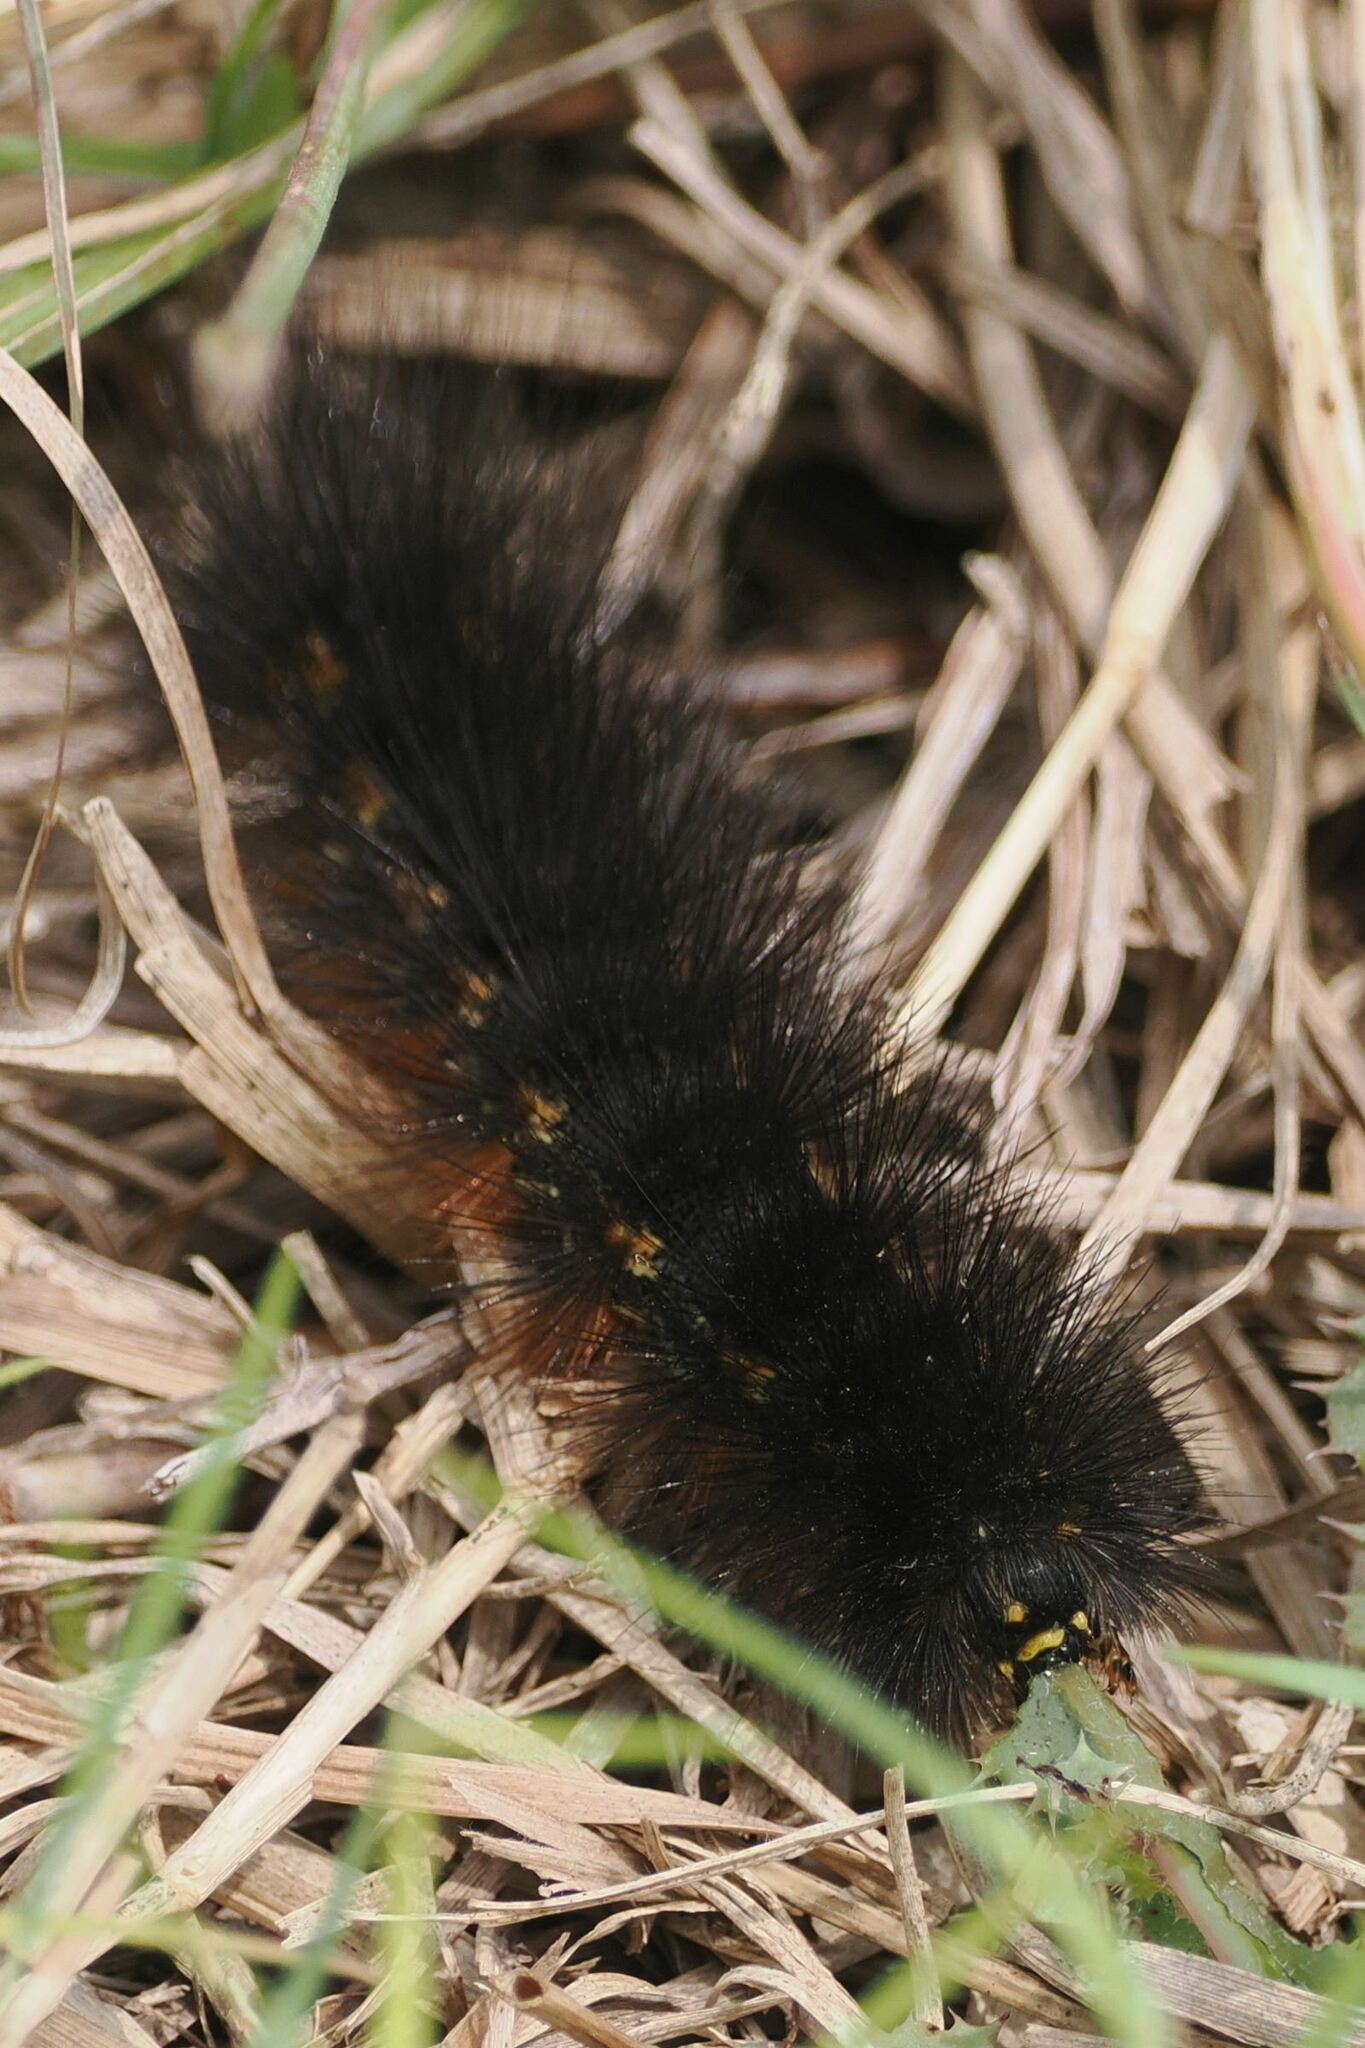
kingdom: Animalia
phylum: Arthropoda
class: Insecta
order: Lepidoptera
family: Erebidae
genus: Estigmene
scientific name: Estigmene acrea
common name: Salt marsh moth
